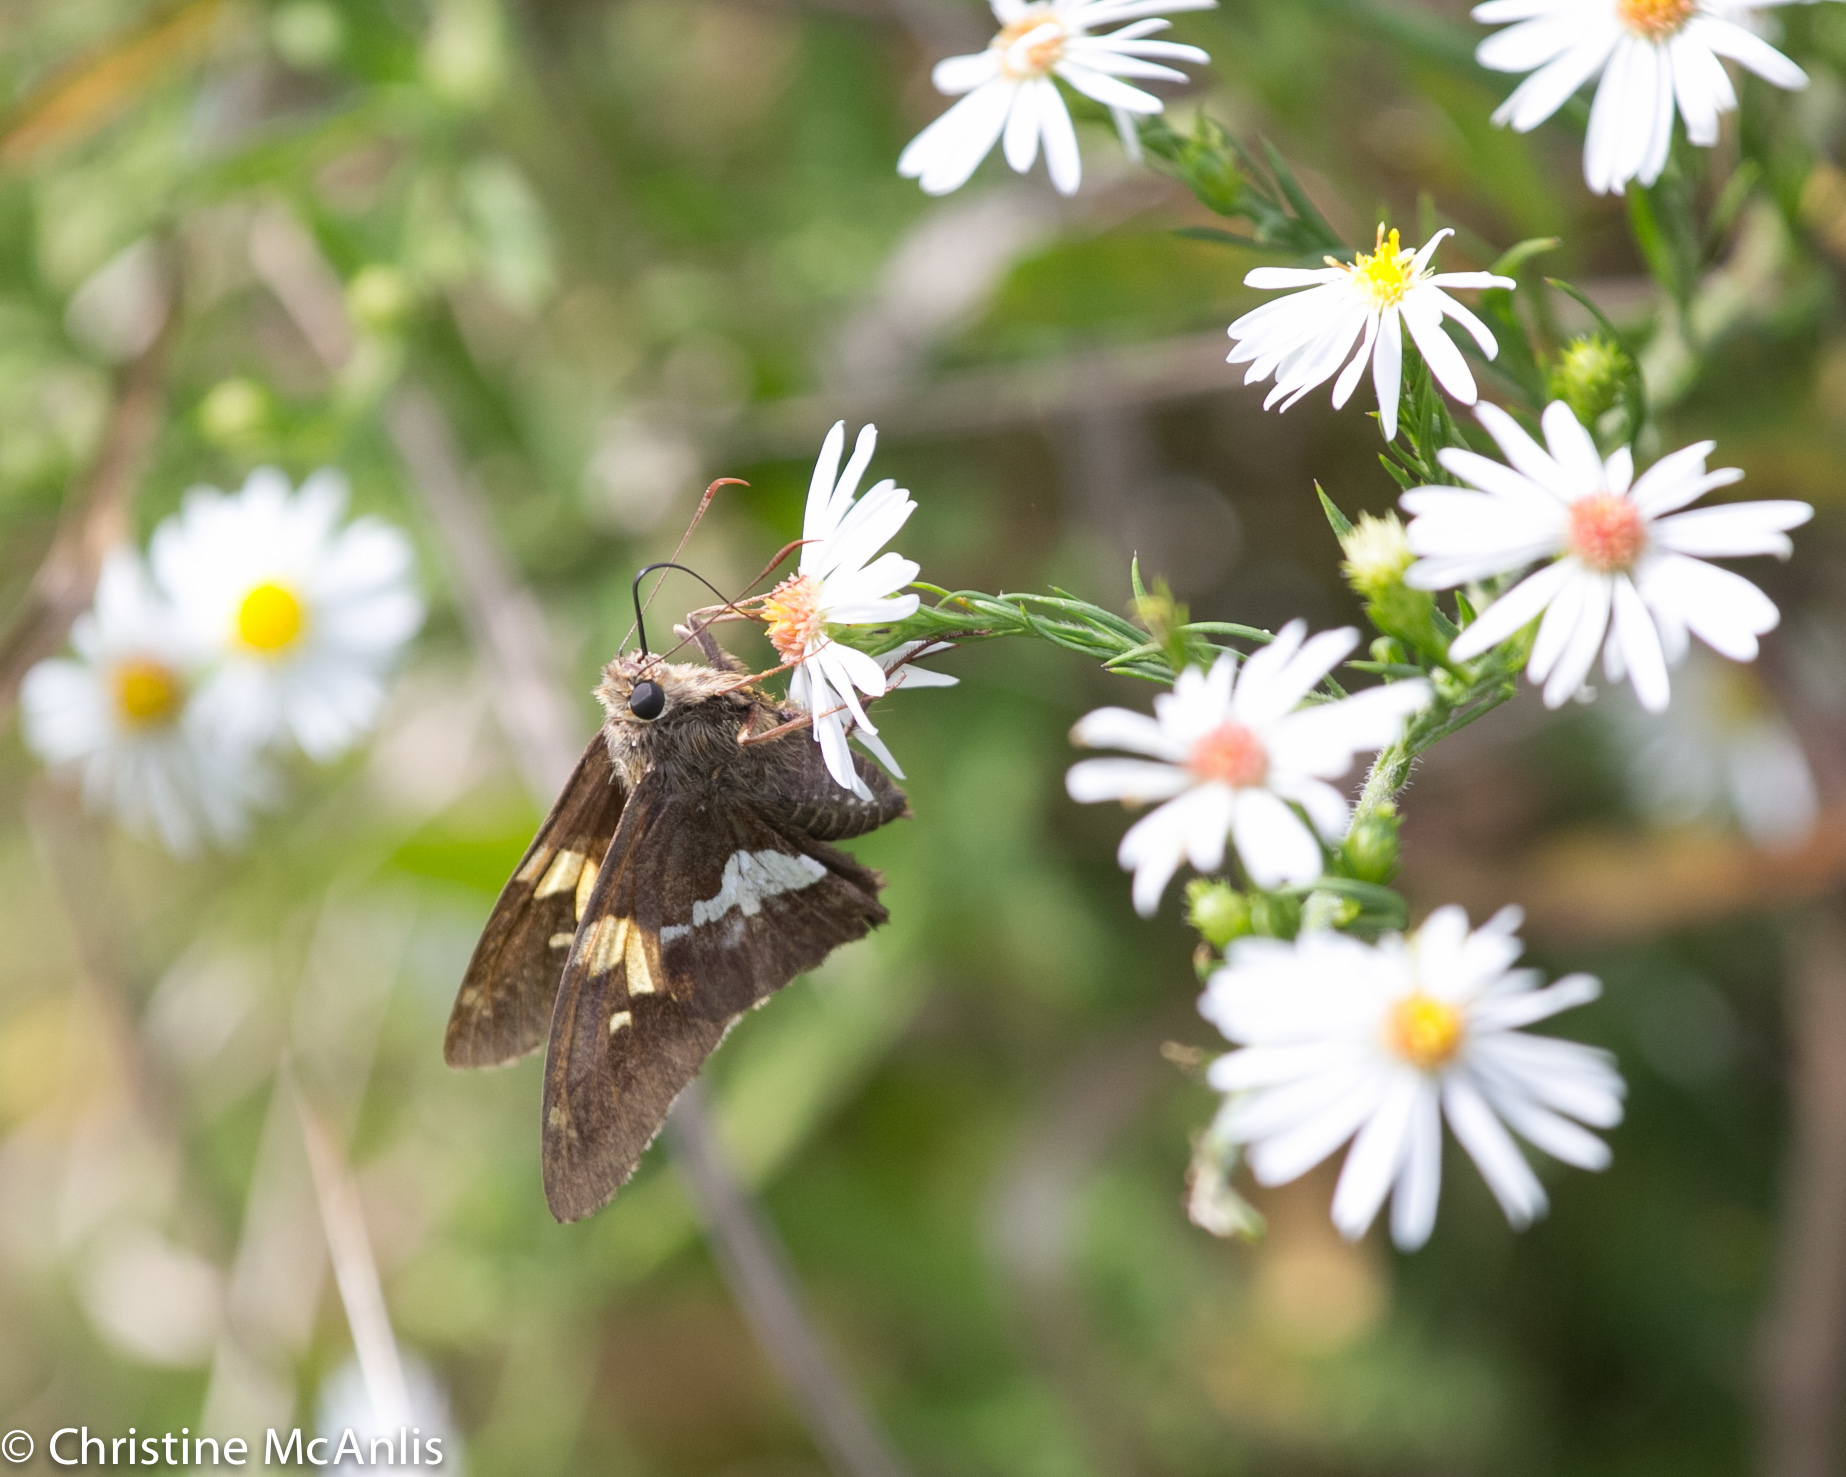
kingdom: Animalia
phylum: Arthropoda
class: Insecta
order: Lepidoptera
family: Hesperiidae
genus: Epargyreus
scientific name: Epargyreus clarus
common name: Silver-spotted skipper
